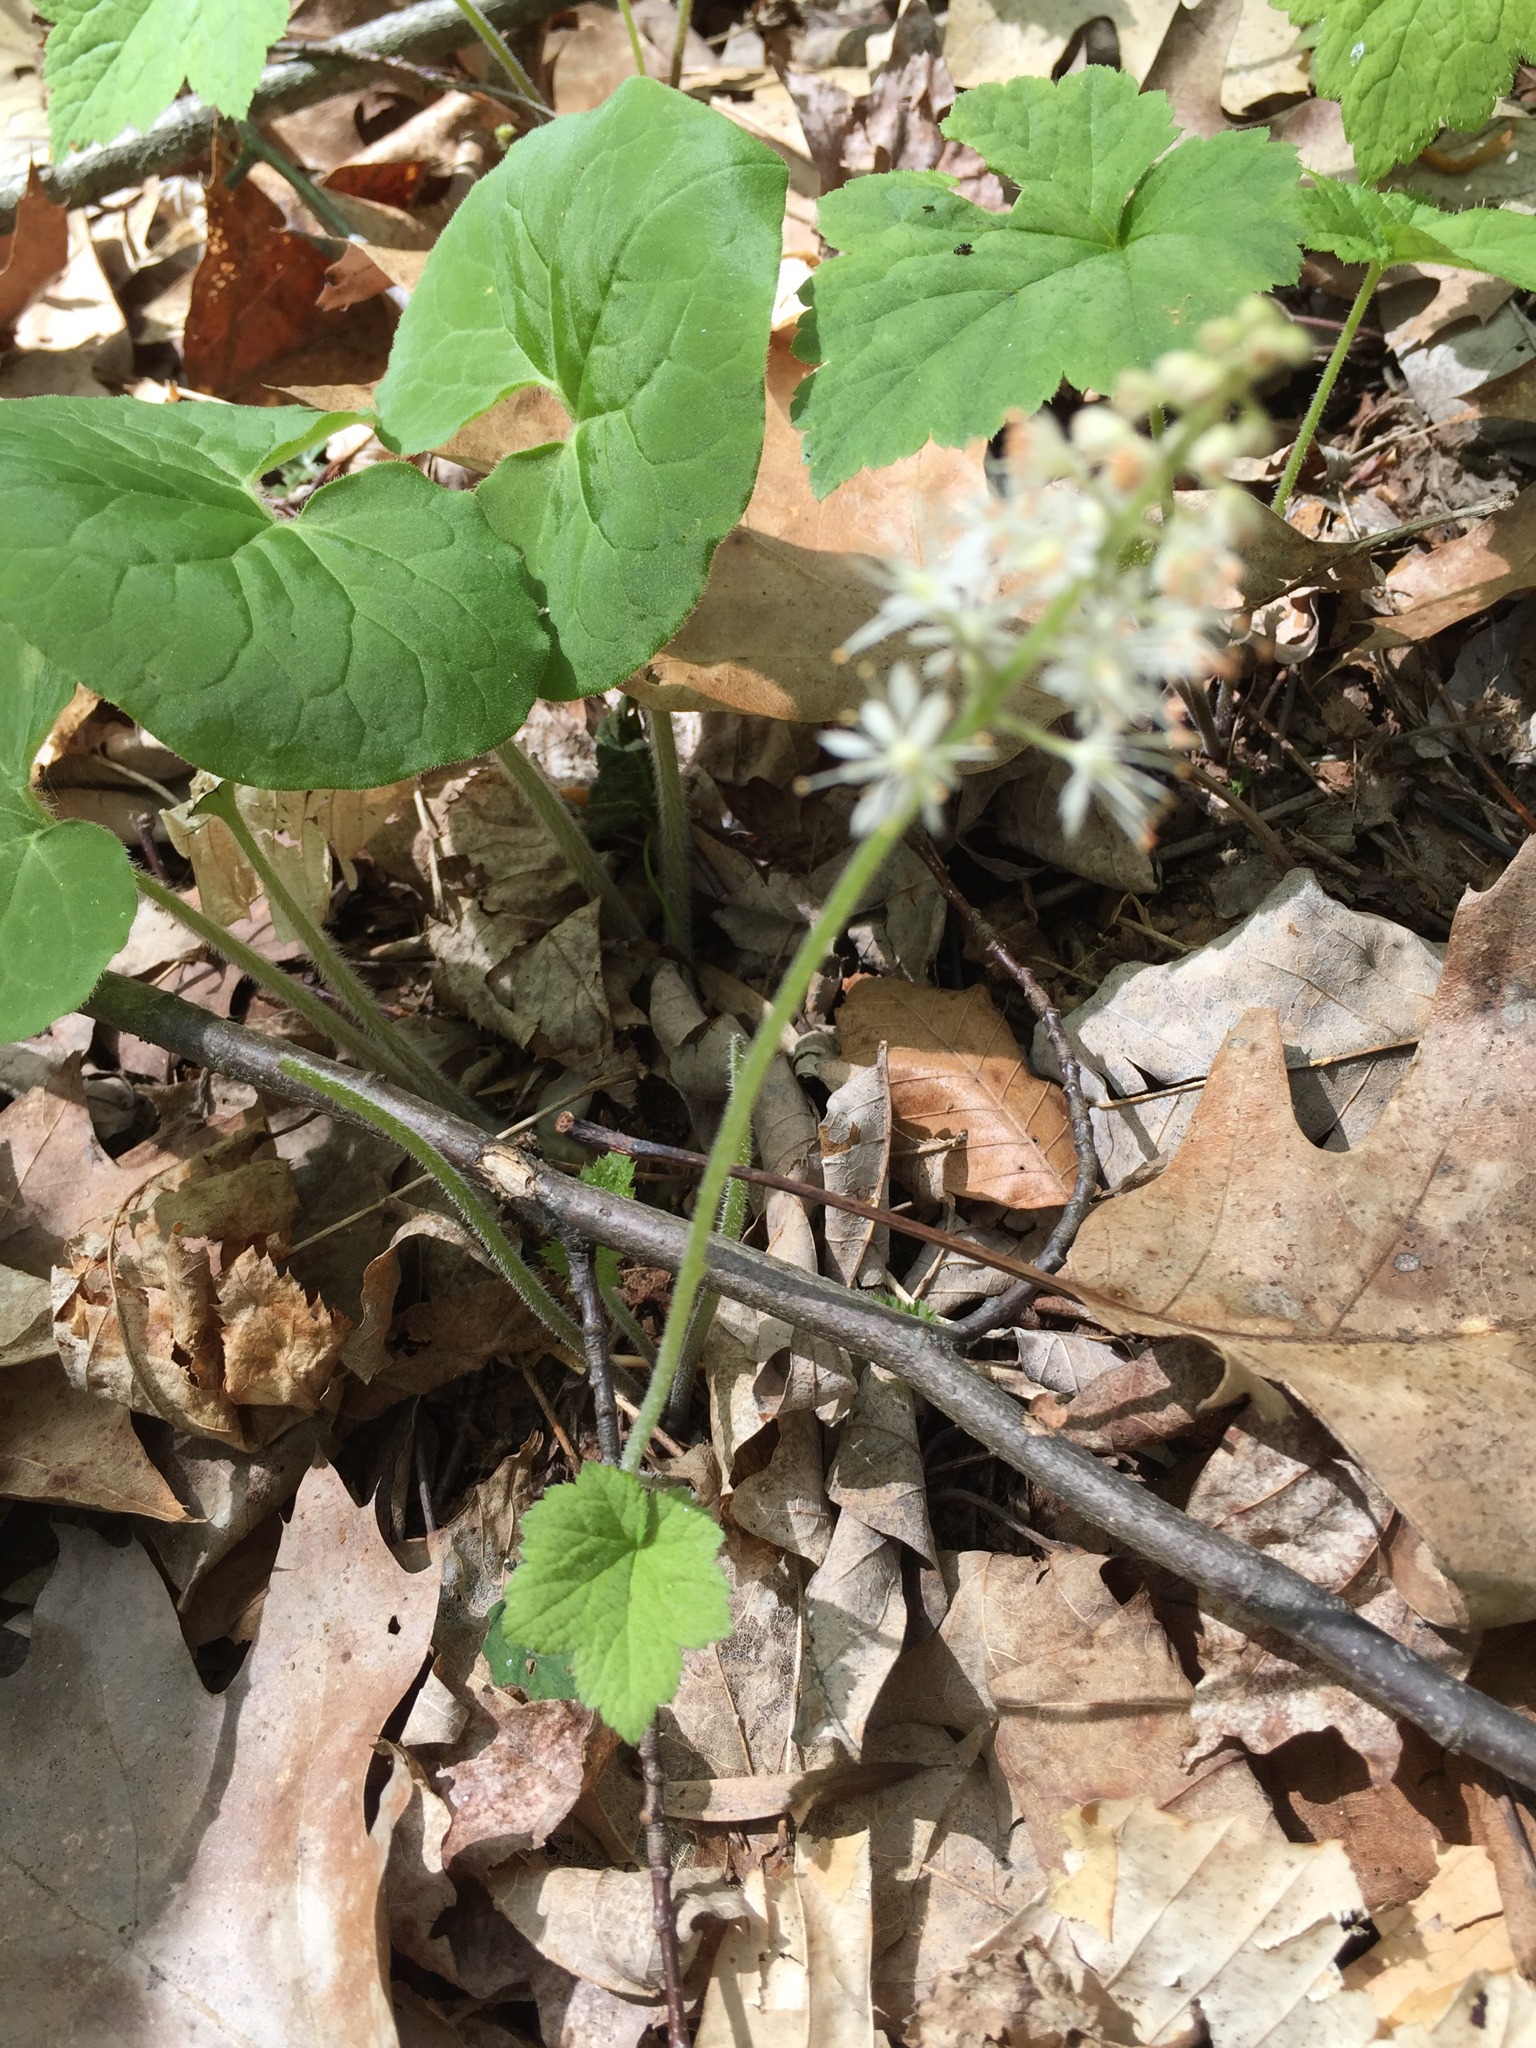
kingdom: Plantae
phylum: Tracheophyta
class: Magnoliopsida
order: Saxifragales
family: Saxifragaceae
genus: Tiarella
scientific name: Tiarella stolonifera
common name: Stoloniferous foamflower
